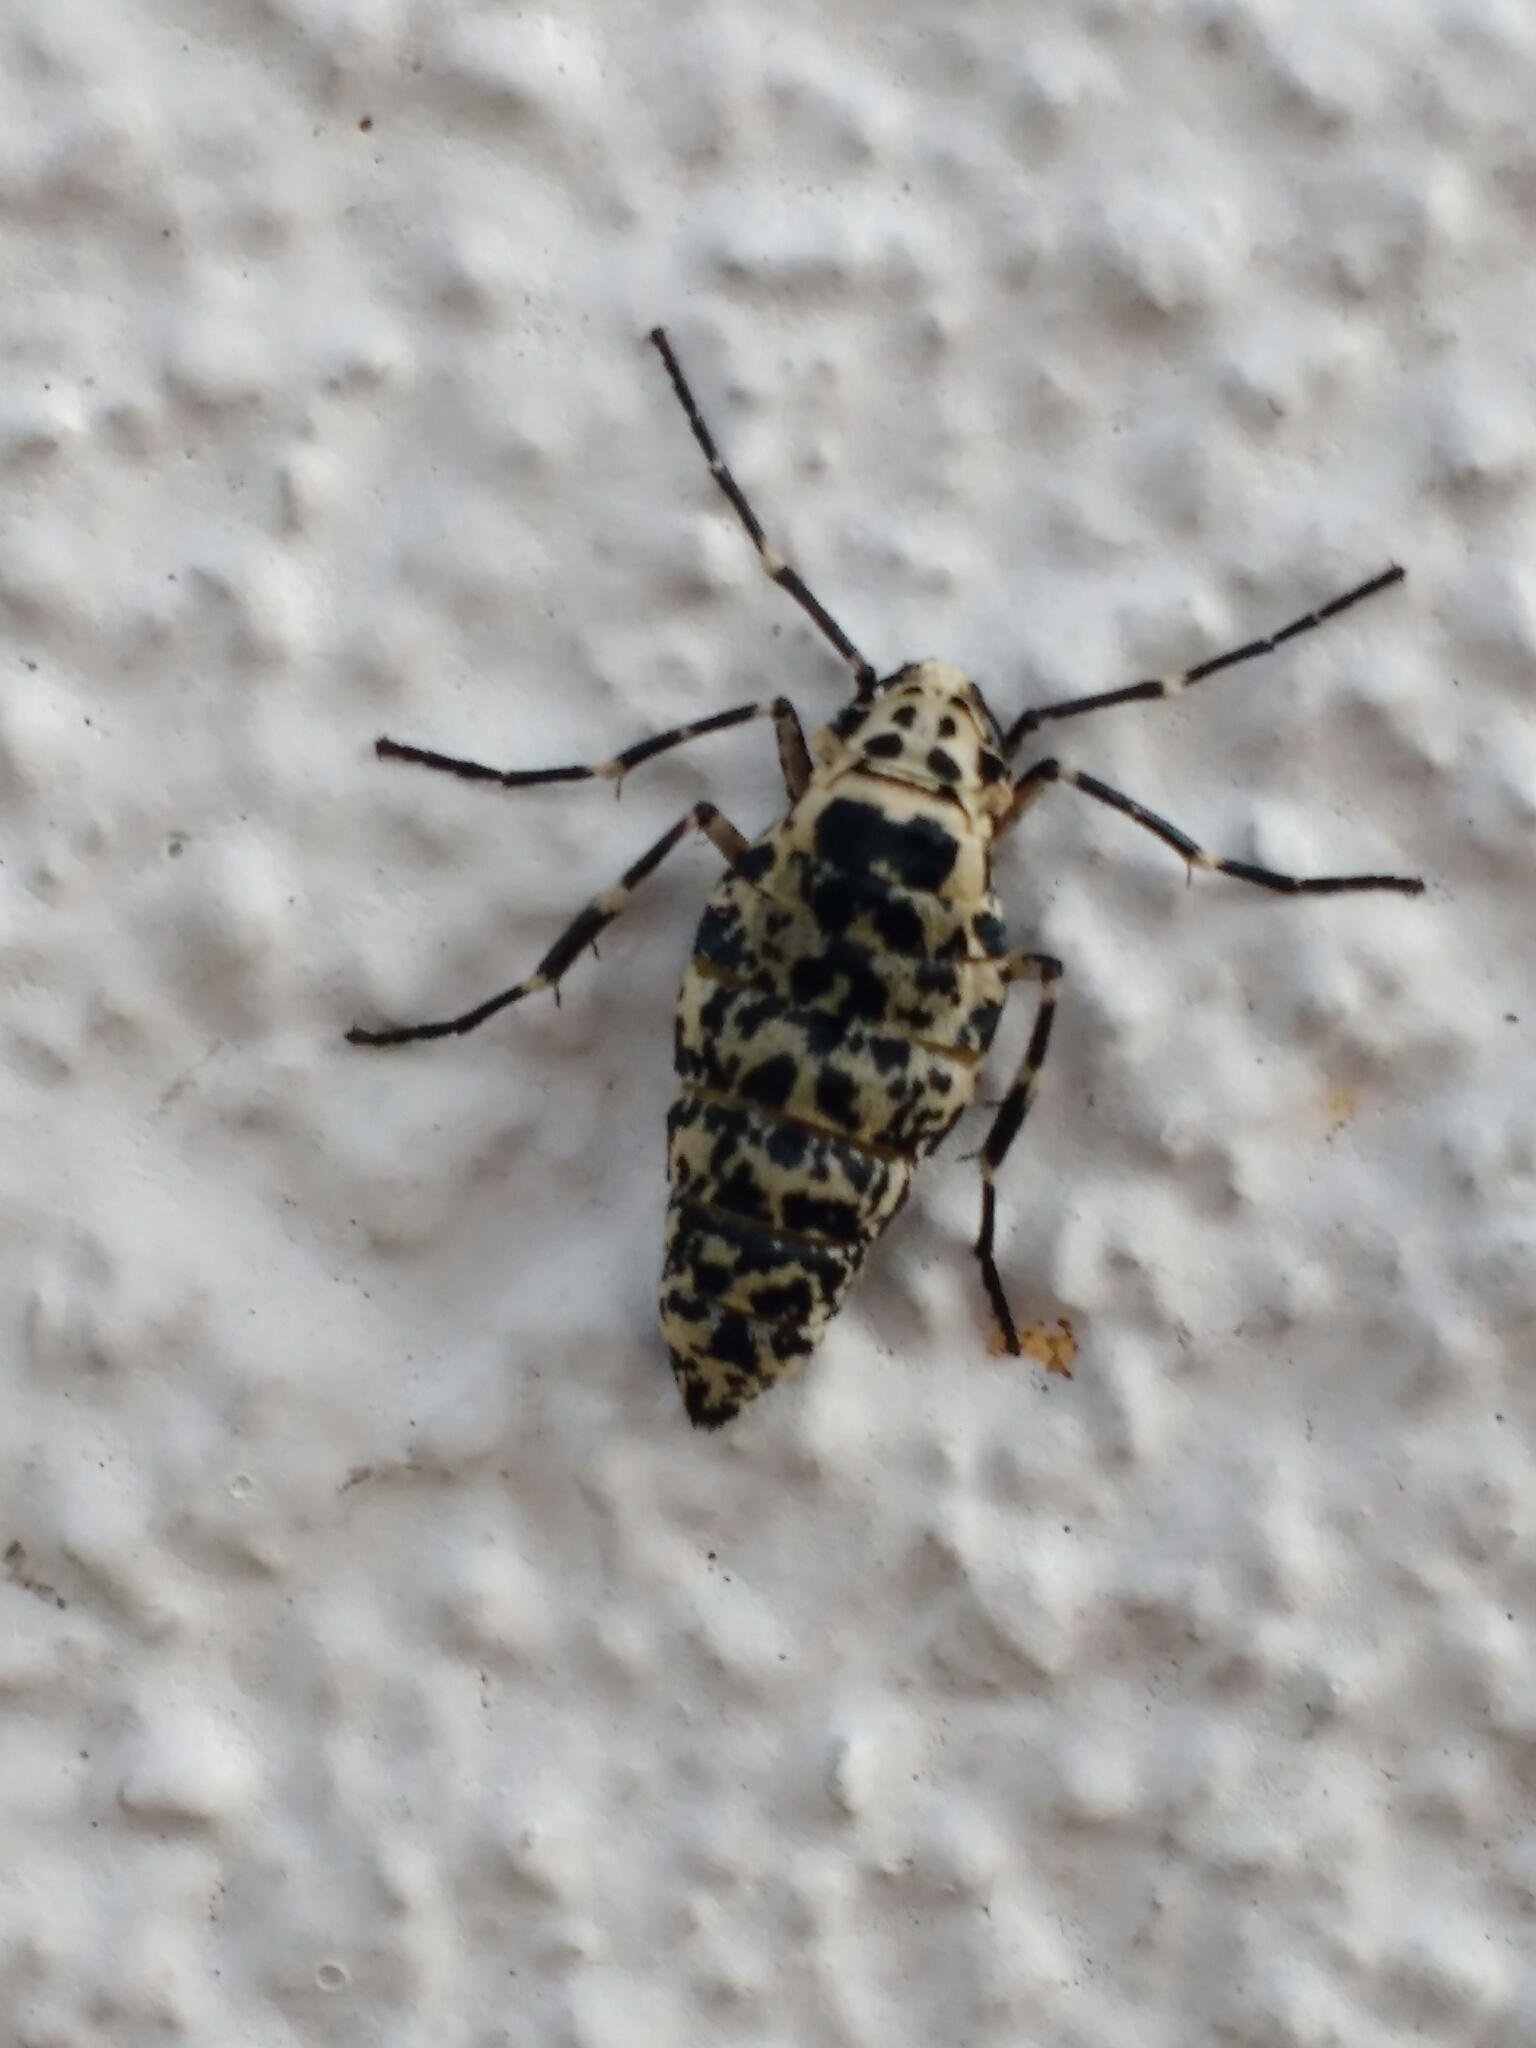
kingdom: Animalia
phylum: Arthropoda
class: Insecta
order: Lepidoptera
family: Geometridae
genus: Erannis
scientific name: Erannis defoliaria
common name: Mottled umber
